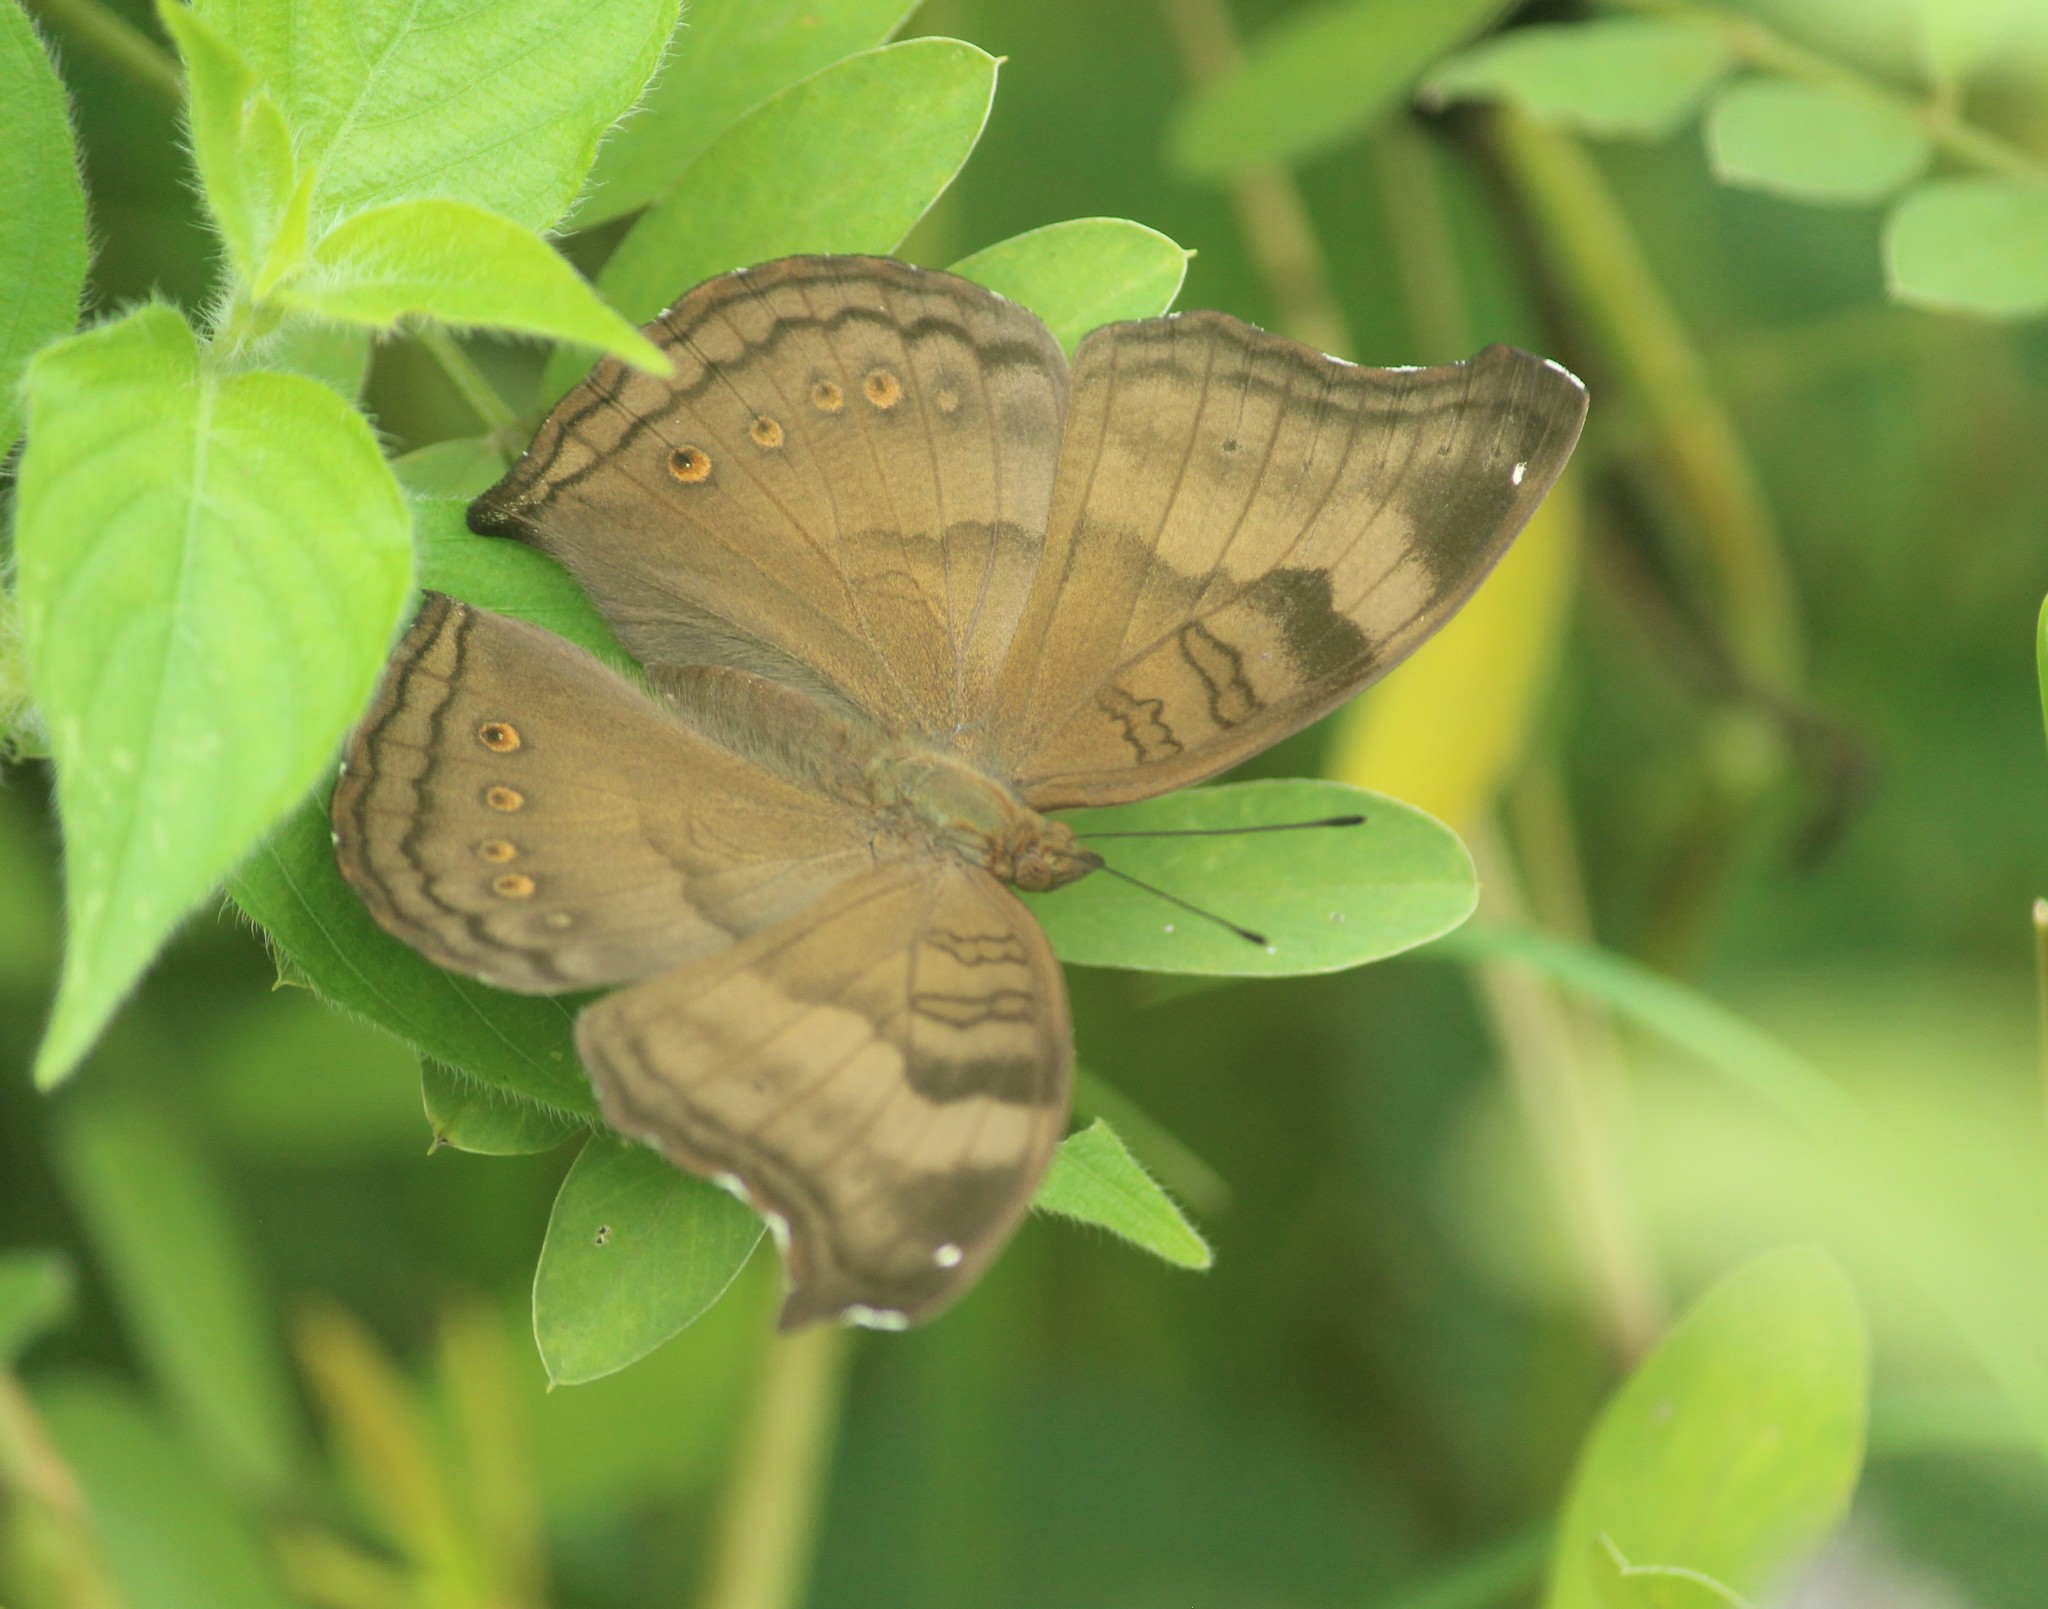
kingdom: Animalia
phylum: Arthropoda
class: Insecta
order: Lepidoptera
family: Nymphalidae
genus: Junonia
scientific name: Junonia iphita
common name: Chocolate pansy
